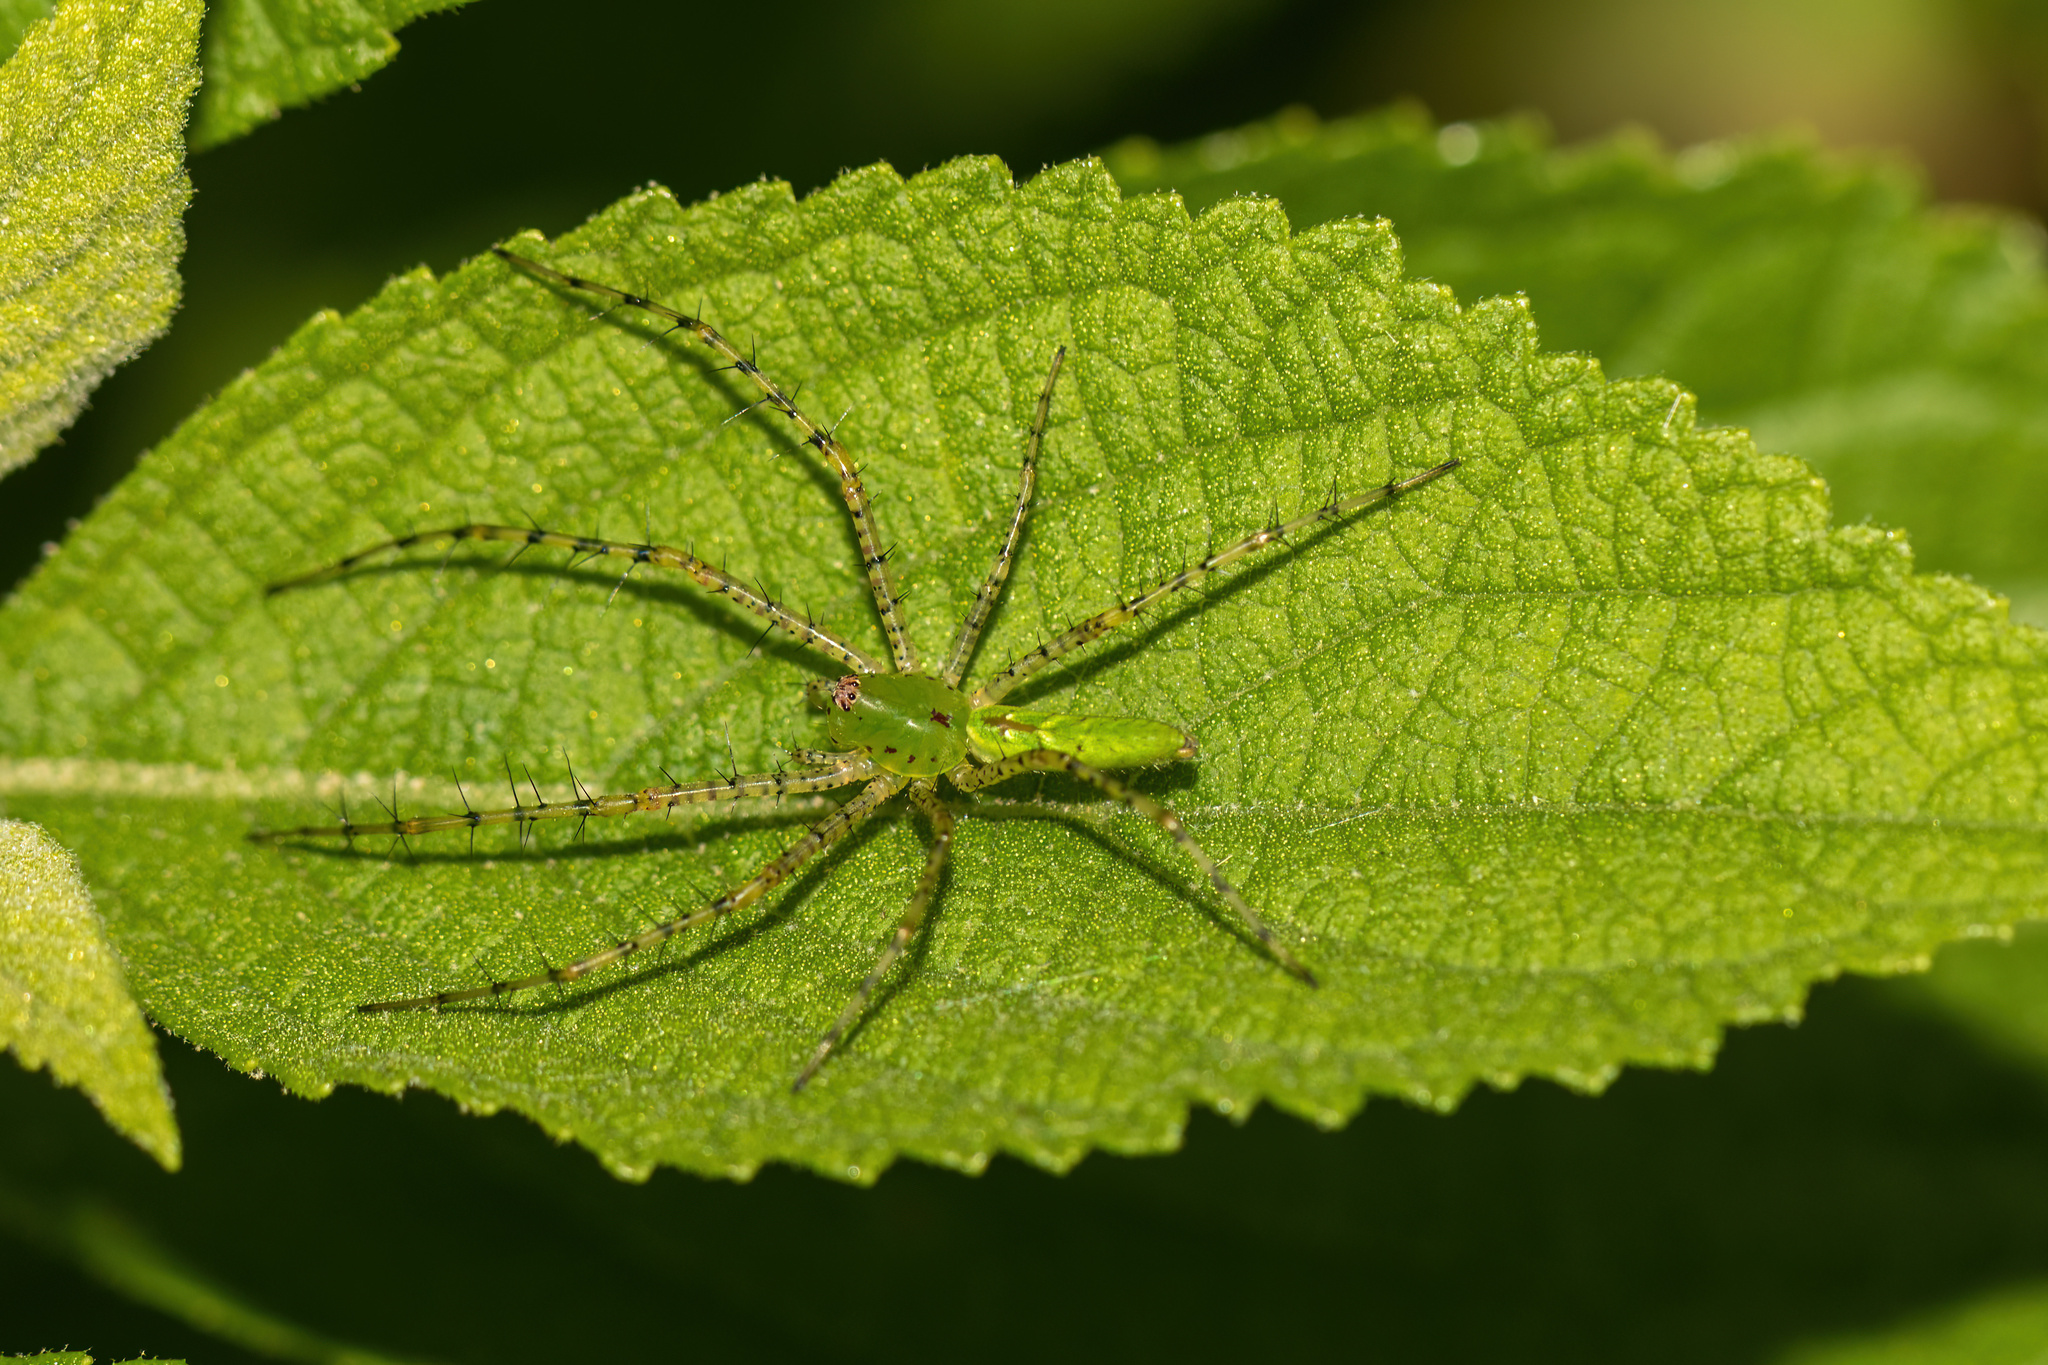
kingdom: Animalia
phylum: Arthropoda
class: Arachnida
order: Araneae
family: Oxyopidae
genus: Peucetia
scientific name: Peucetia viridans
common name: Lynx spiders
